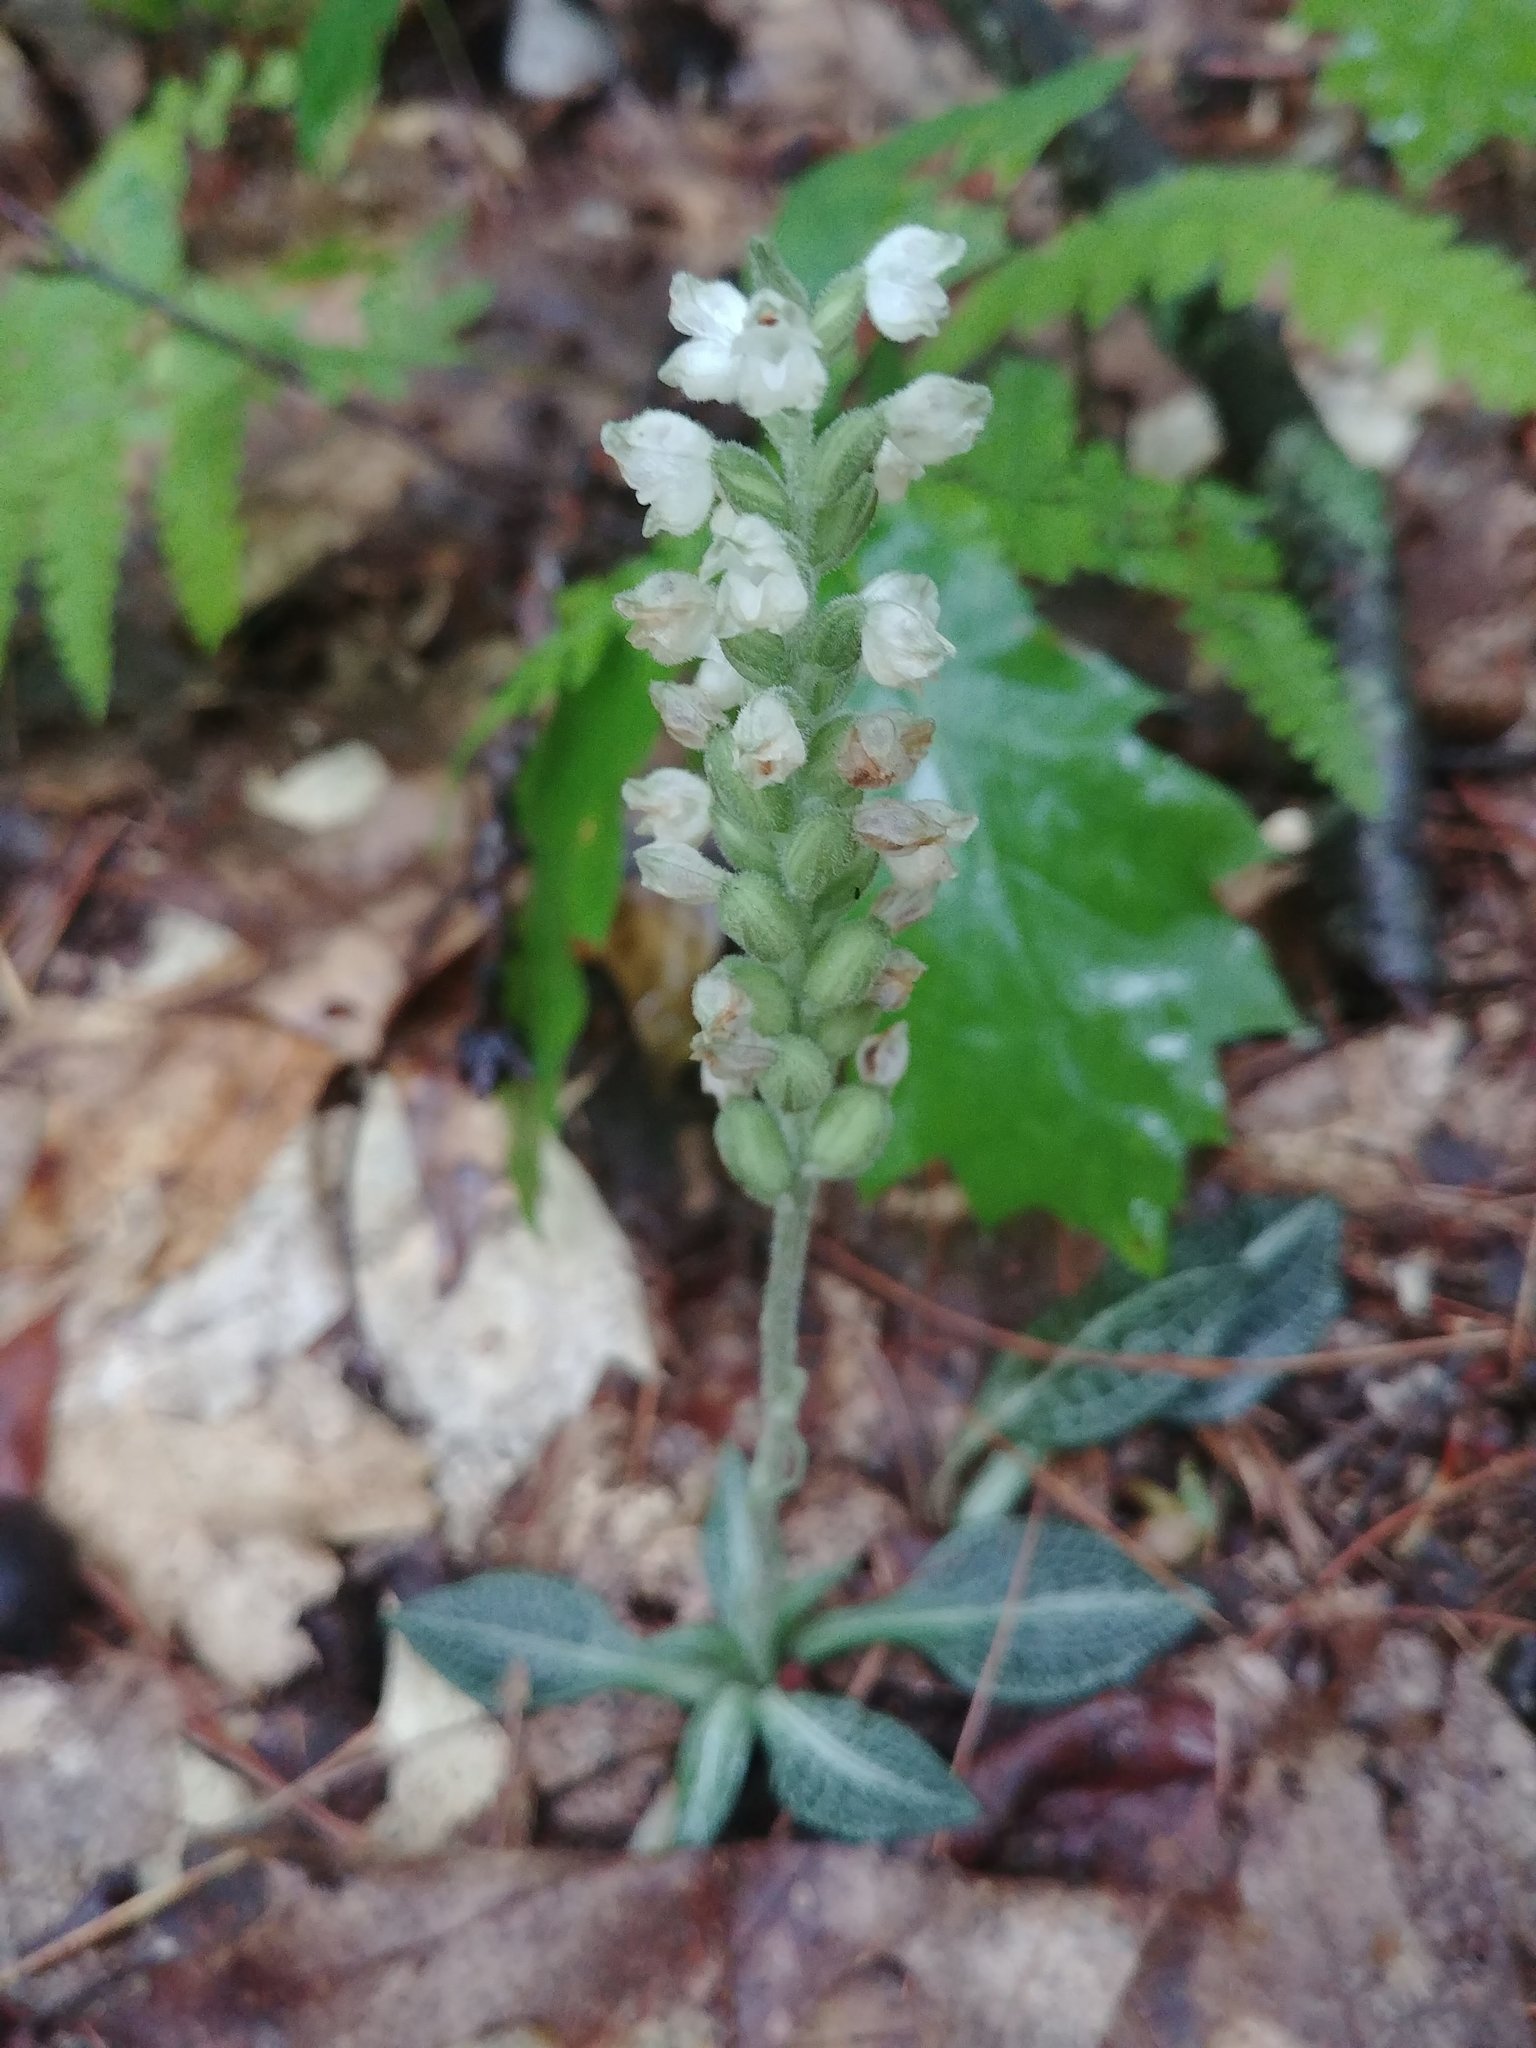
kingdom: Plantae
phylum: Tracheophyta
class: Liliopsida
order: Asparagales
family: Orchidaceae
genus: Goodyera
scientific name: Goodyera pubescens
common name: Downy rattlesnake-plantain
